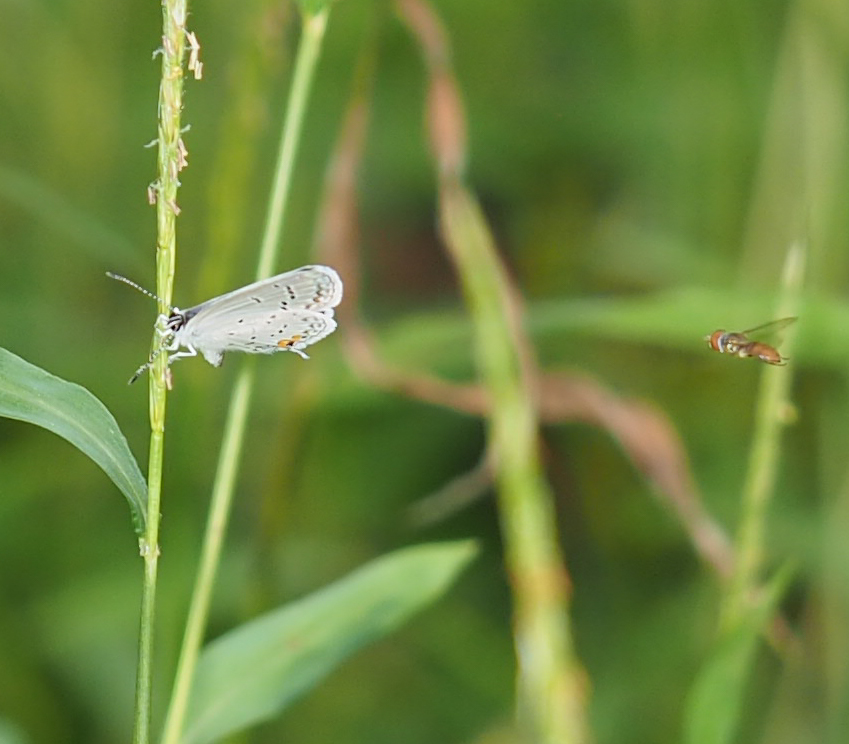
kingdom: Animalia
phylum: Arthropoda
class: Insecta
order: Lepidoptera
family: Lycaenidae
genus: Elkalyce
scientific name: Elkalyce comyntas
